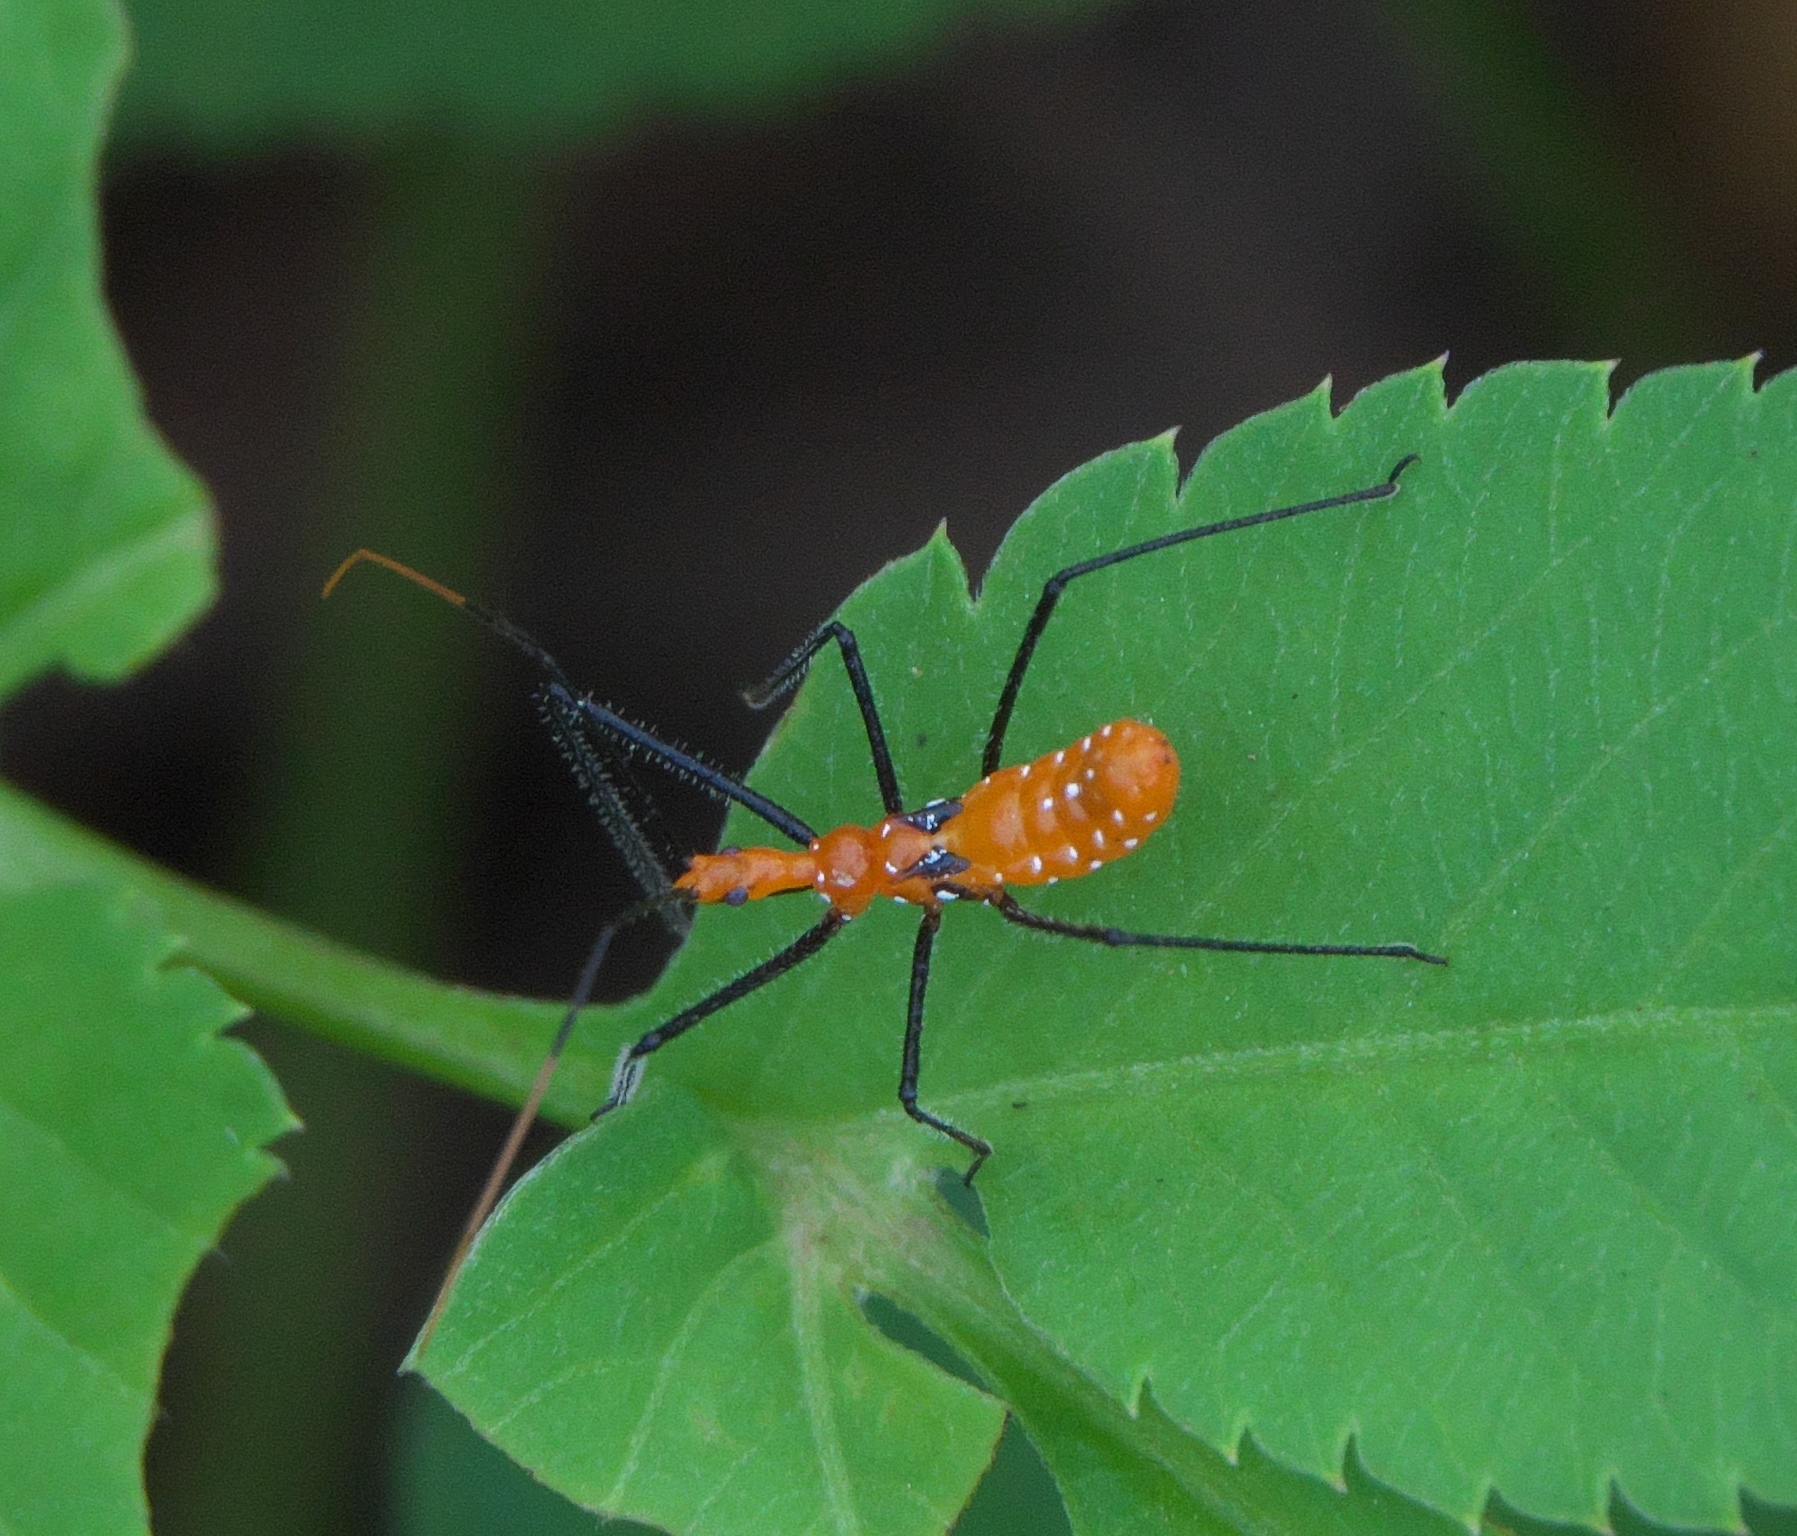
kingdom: Animalia
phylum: Arthropoda
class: Insecta
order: Hemiptera
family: Reduviidae
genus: Zelus
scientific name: Zelus longipes
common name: Milkweed assassin bug
